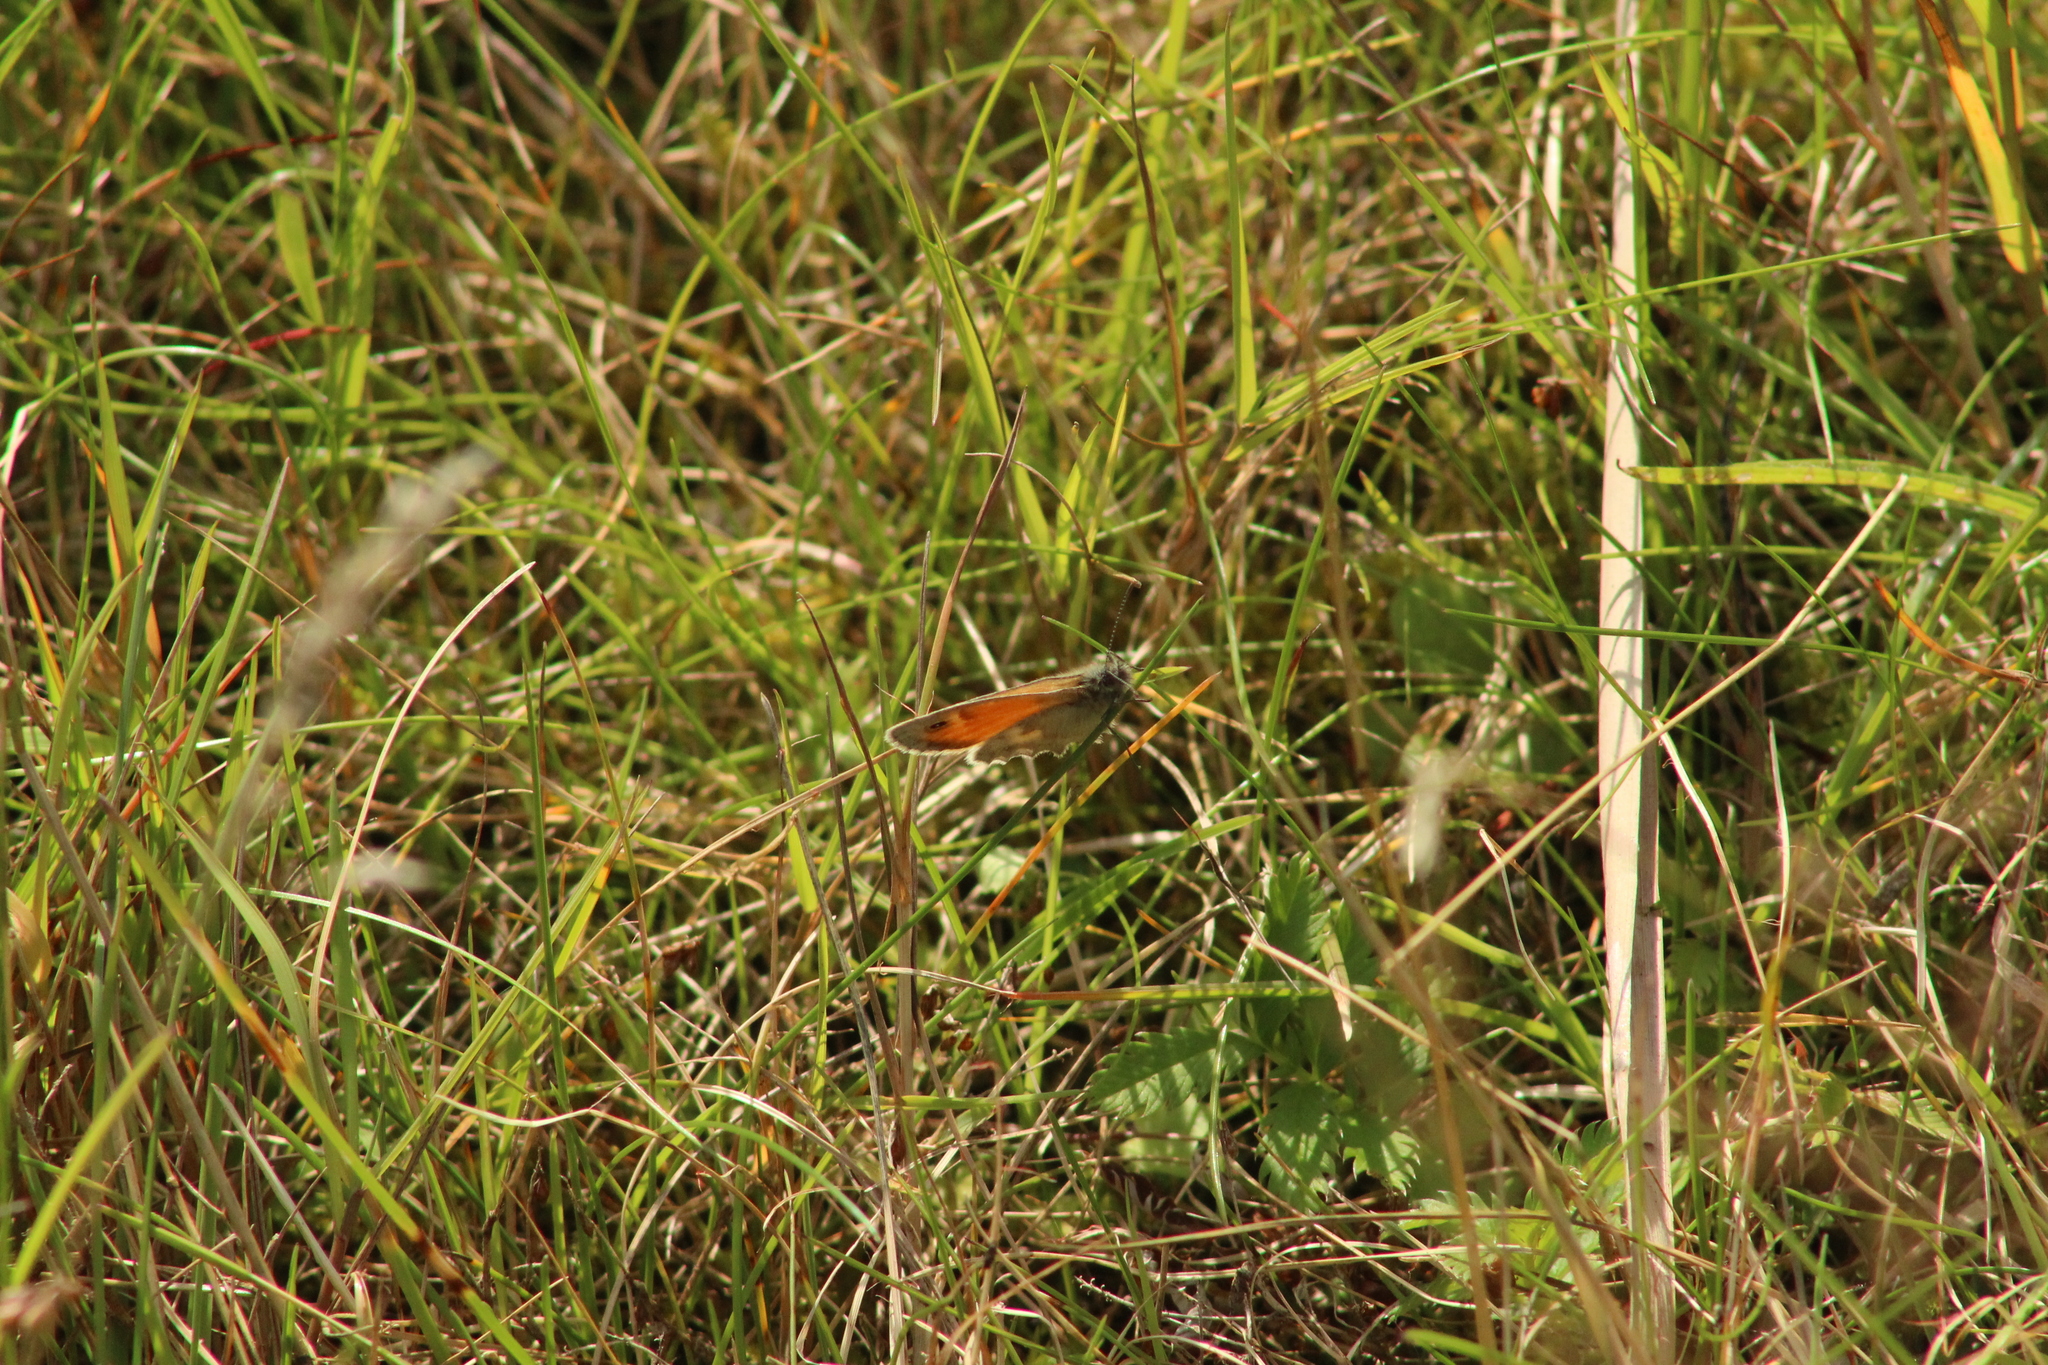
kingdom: Animalia
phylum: Arthropoda
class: Insecta
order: Lepidoptera
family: Nymphalidae
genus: Coenonympha
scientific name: Coenonympha pamphilus
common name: Small heath
